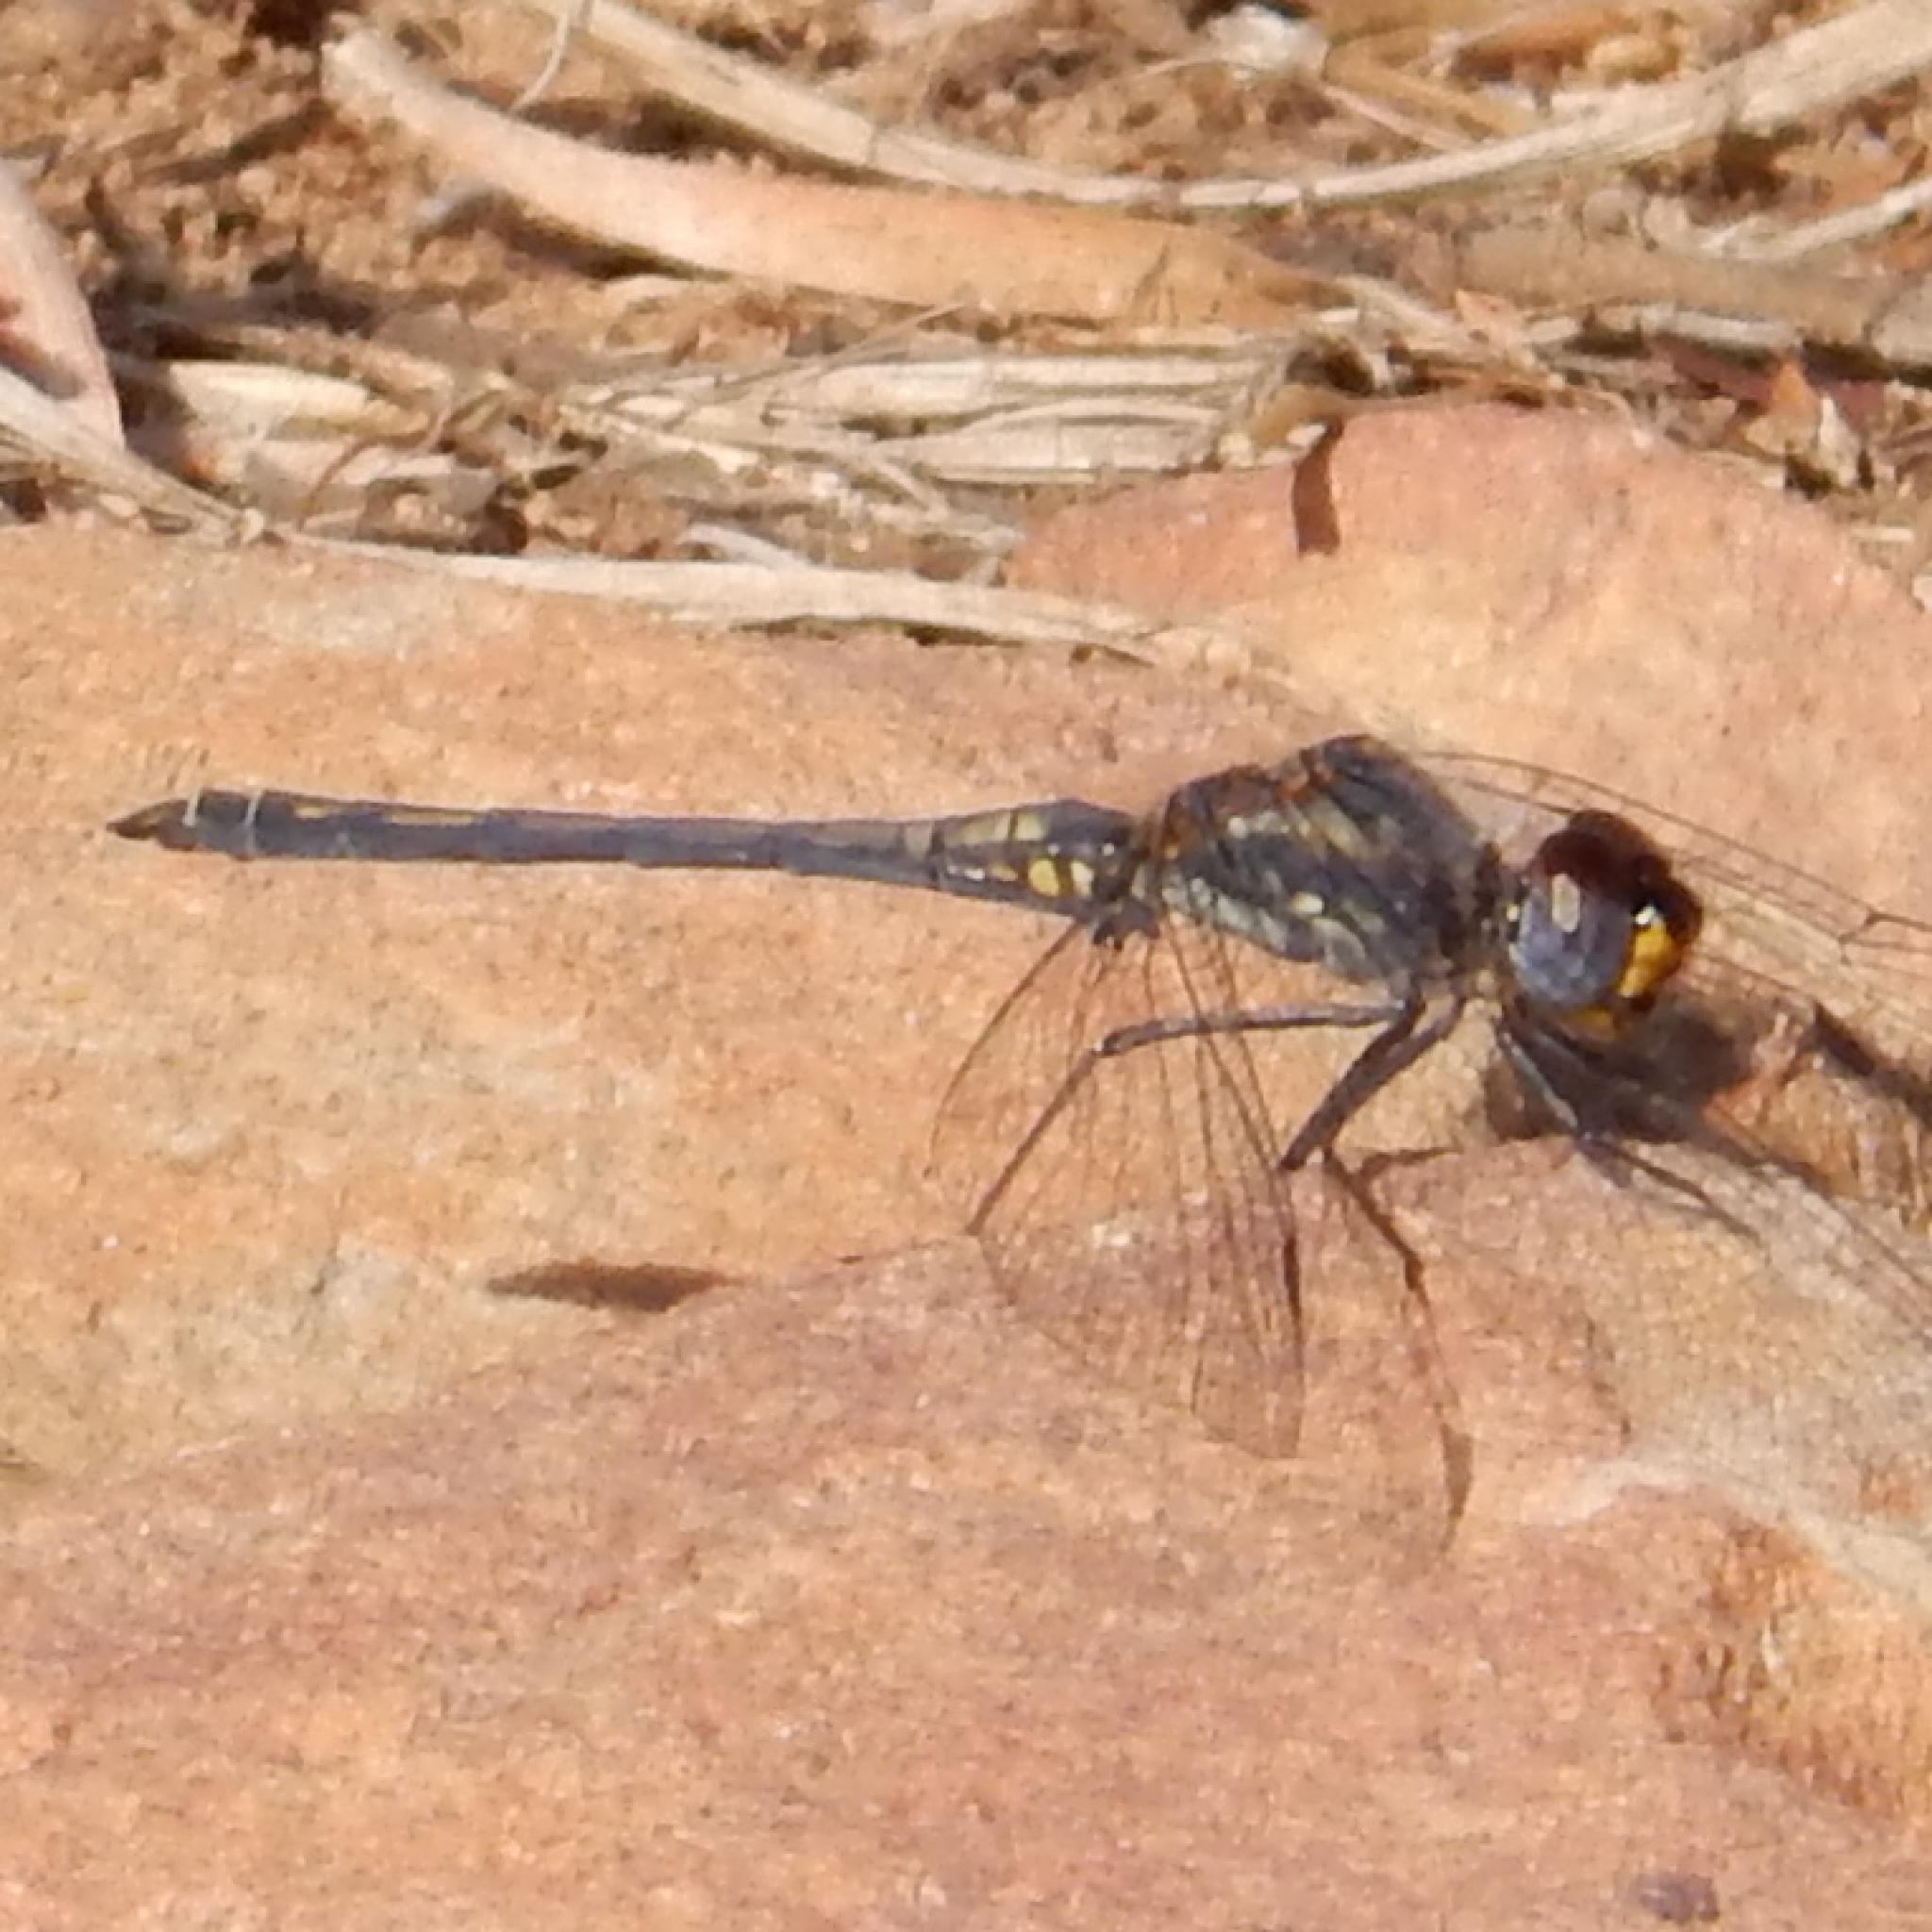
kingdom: Animalia
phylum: Arthropoda
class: Insecta
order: Odonata
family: Libellulidae
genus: Trithemis
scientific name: Trithemis furva
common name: Dark dropwing
